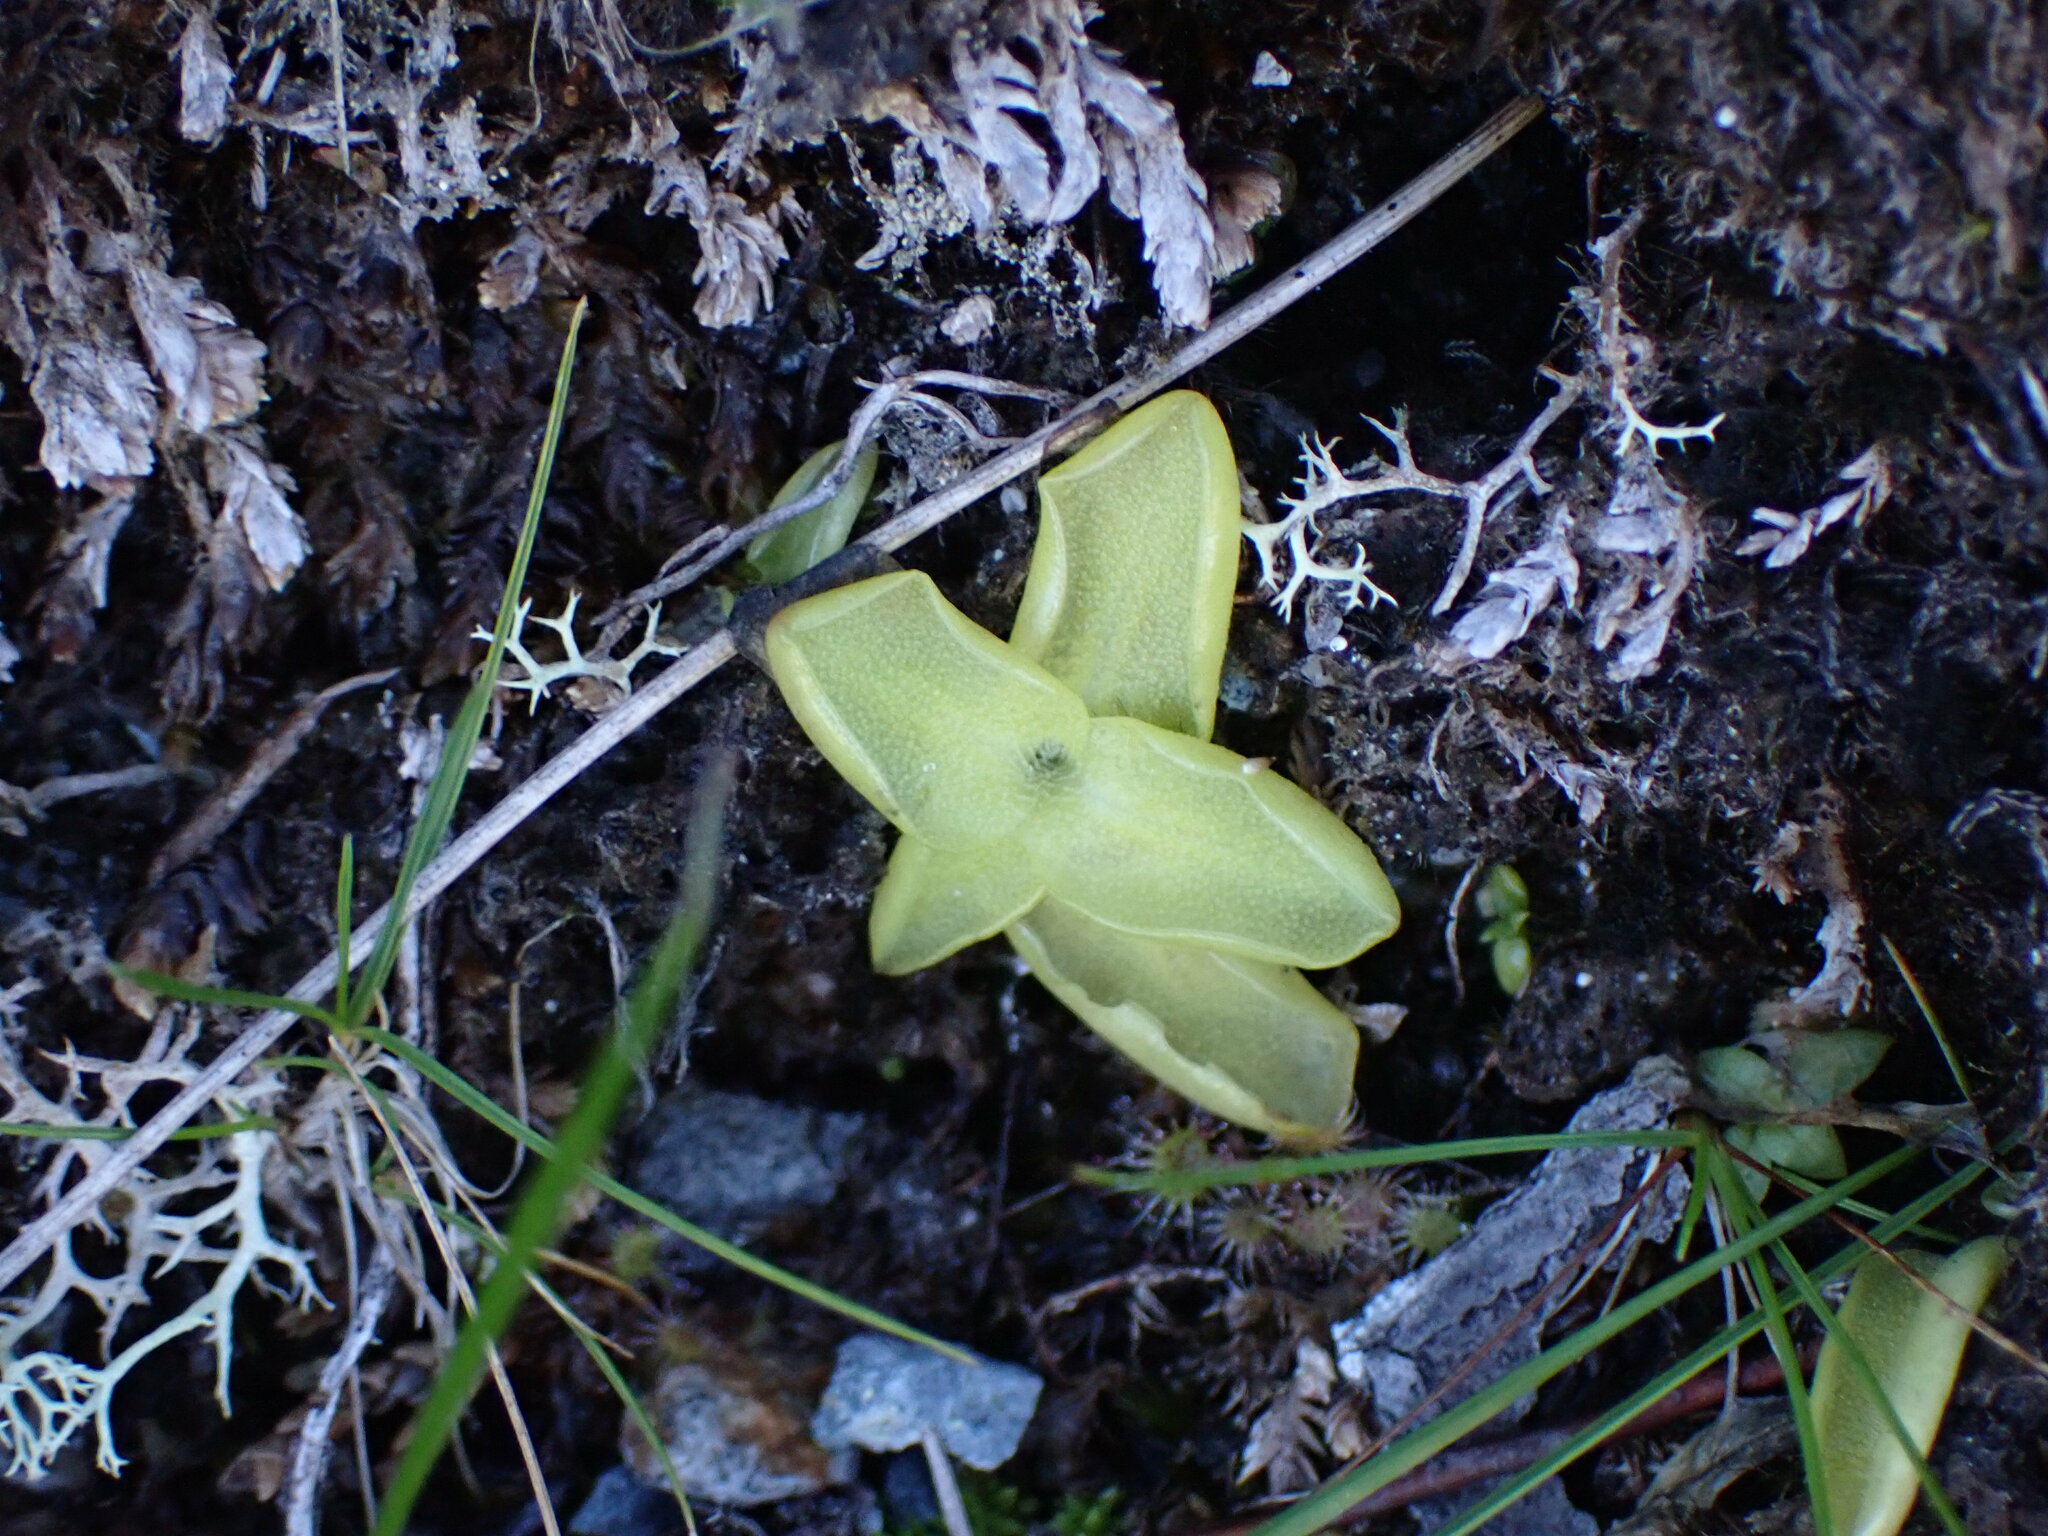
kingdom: Plantae
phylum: Tracheophyta
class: Magnoliopsida
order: Lamiales
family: Lentibulariaceae
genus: Pinguicula
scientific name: Pinguicula vulgaris
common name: Common butterwort
